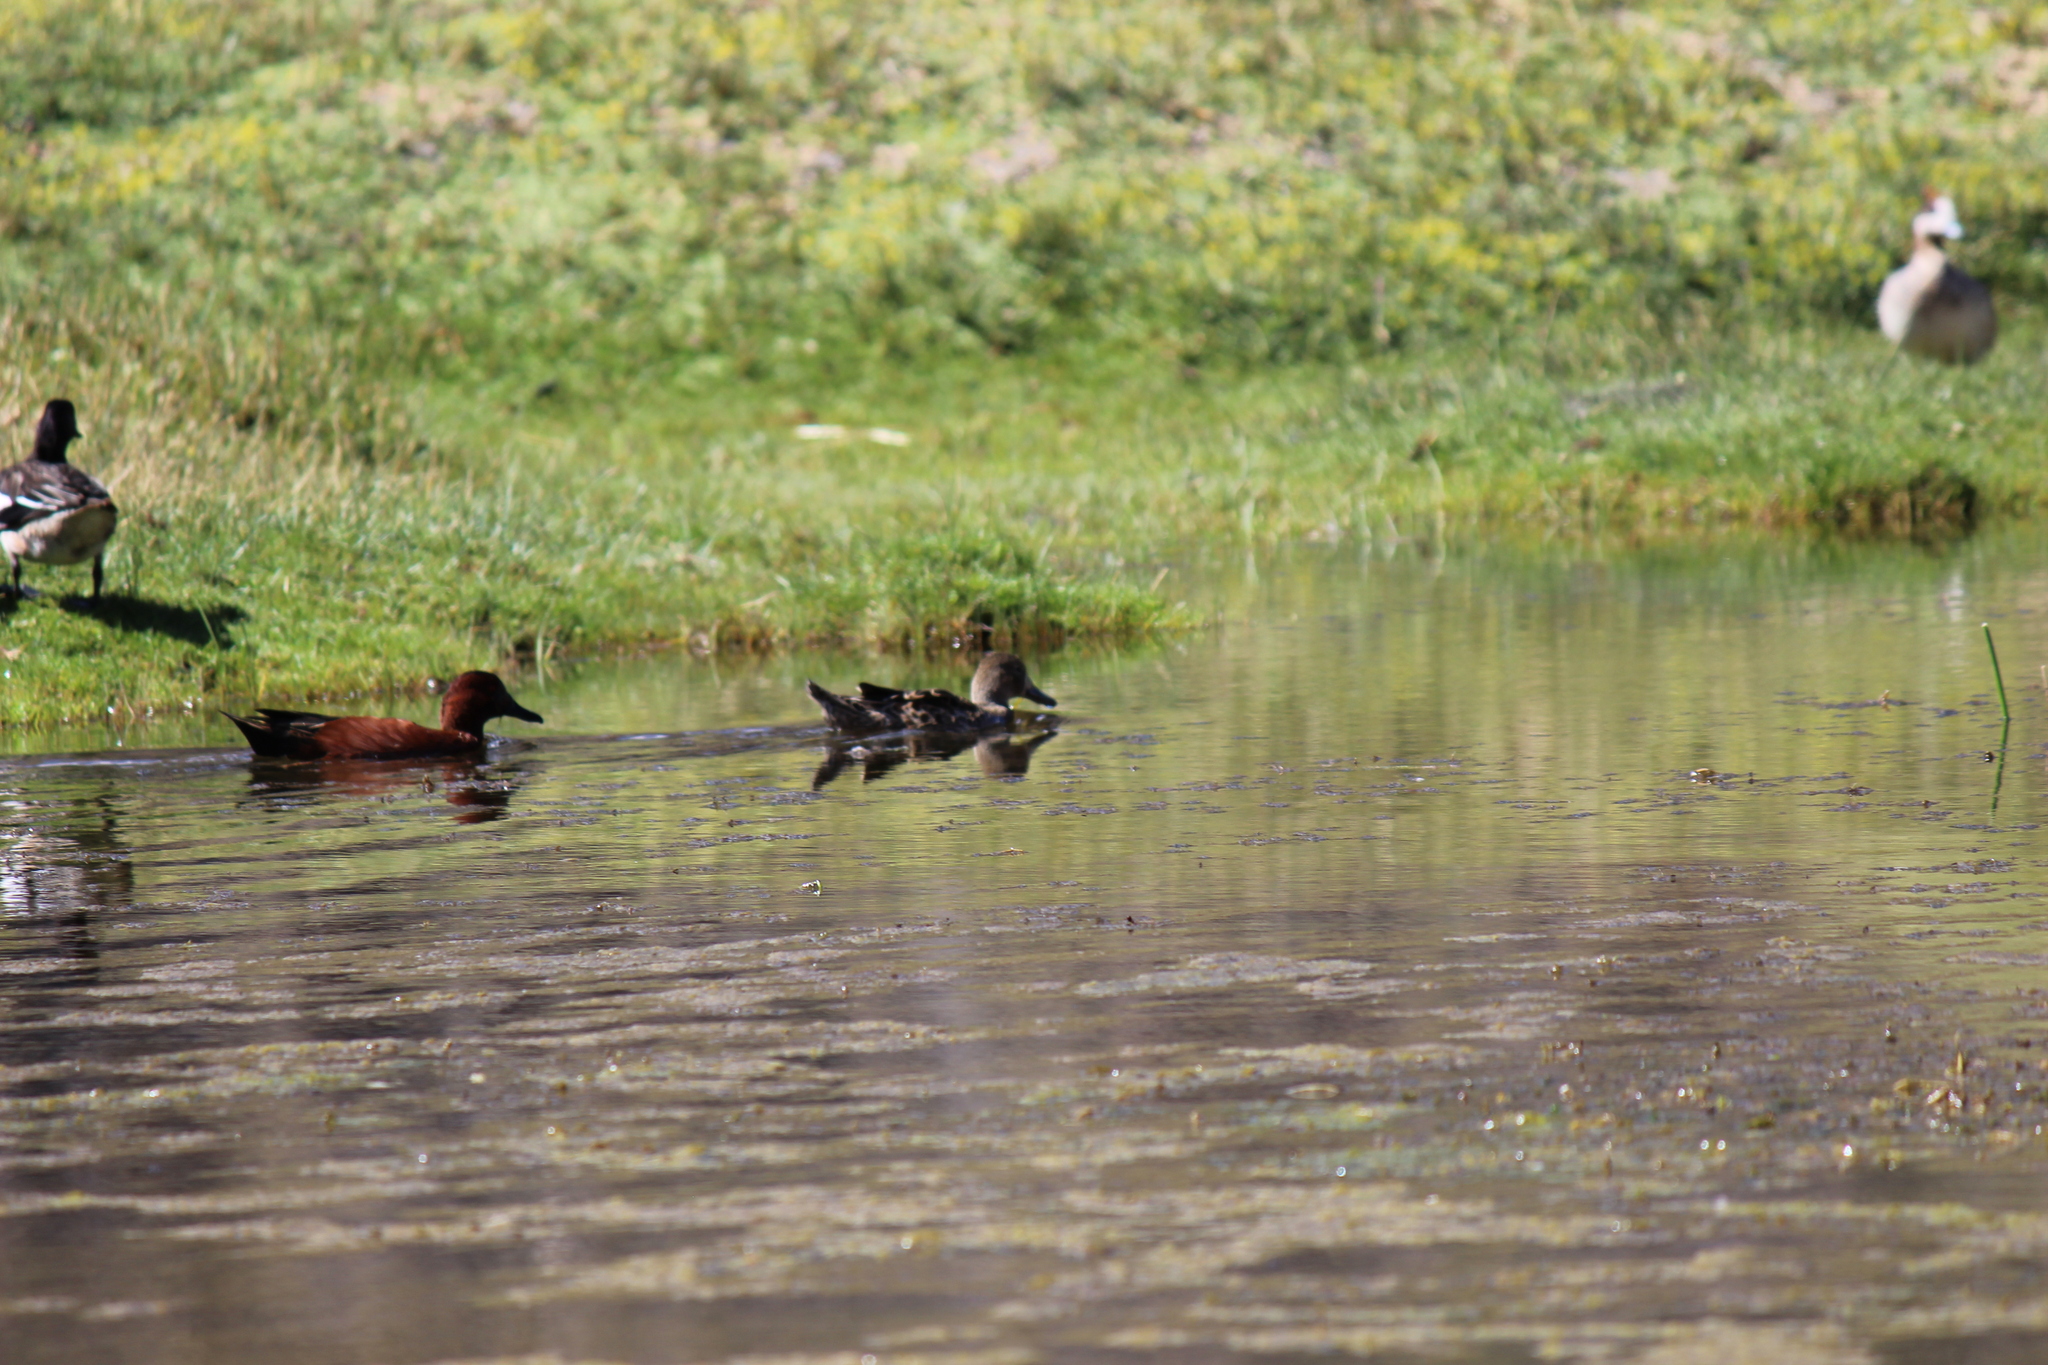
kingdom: Animalia
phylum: Chordata
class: Aves
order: Anseriformes
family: Anatidae
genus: Spatula
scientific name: Spatula cyanoptera
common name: Cinnamon teal
